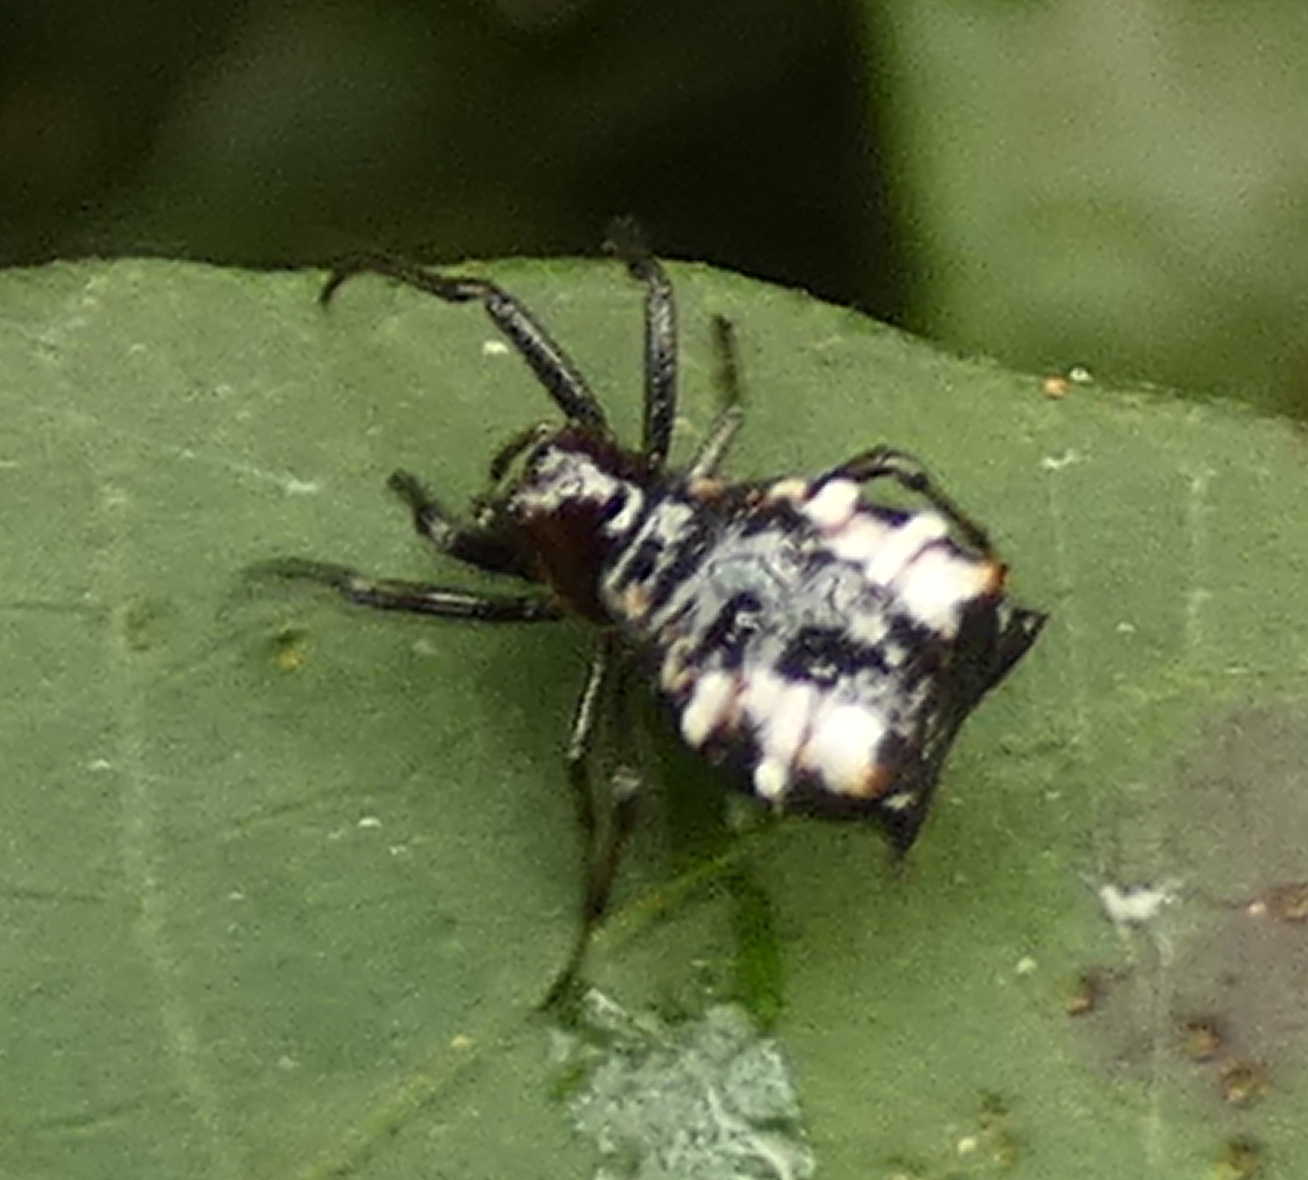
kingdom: Animalia
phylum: Arthropoda
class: Arachnida
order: Araneae
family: Araneidae
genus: Micrathena
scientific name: Micrathena patruelis
